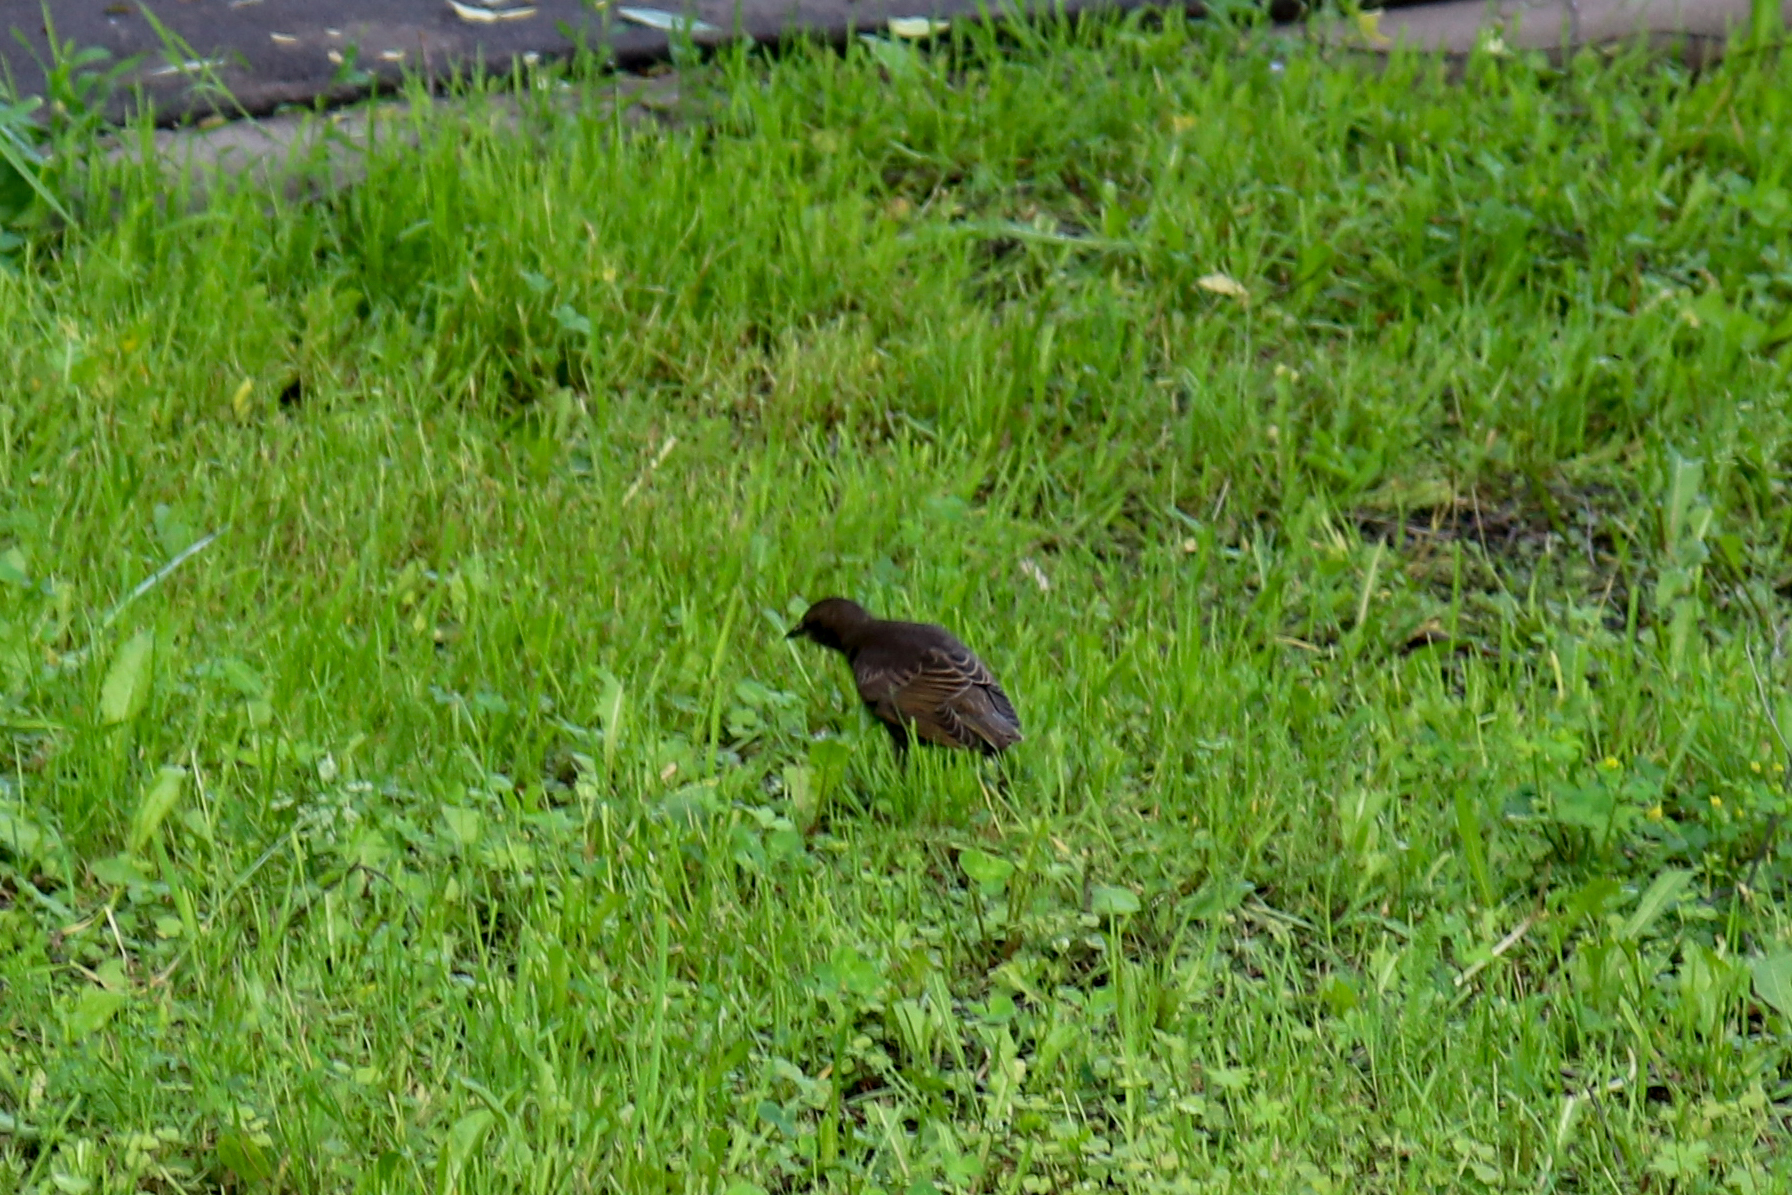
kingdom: Animalia
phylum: Chordata
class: Aves
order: Passeriformes
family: Sturnidae
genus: Sturnus
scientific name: Sturnus vulgaris
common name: Common starling
